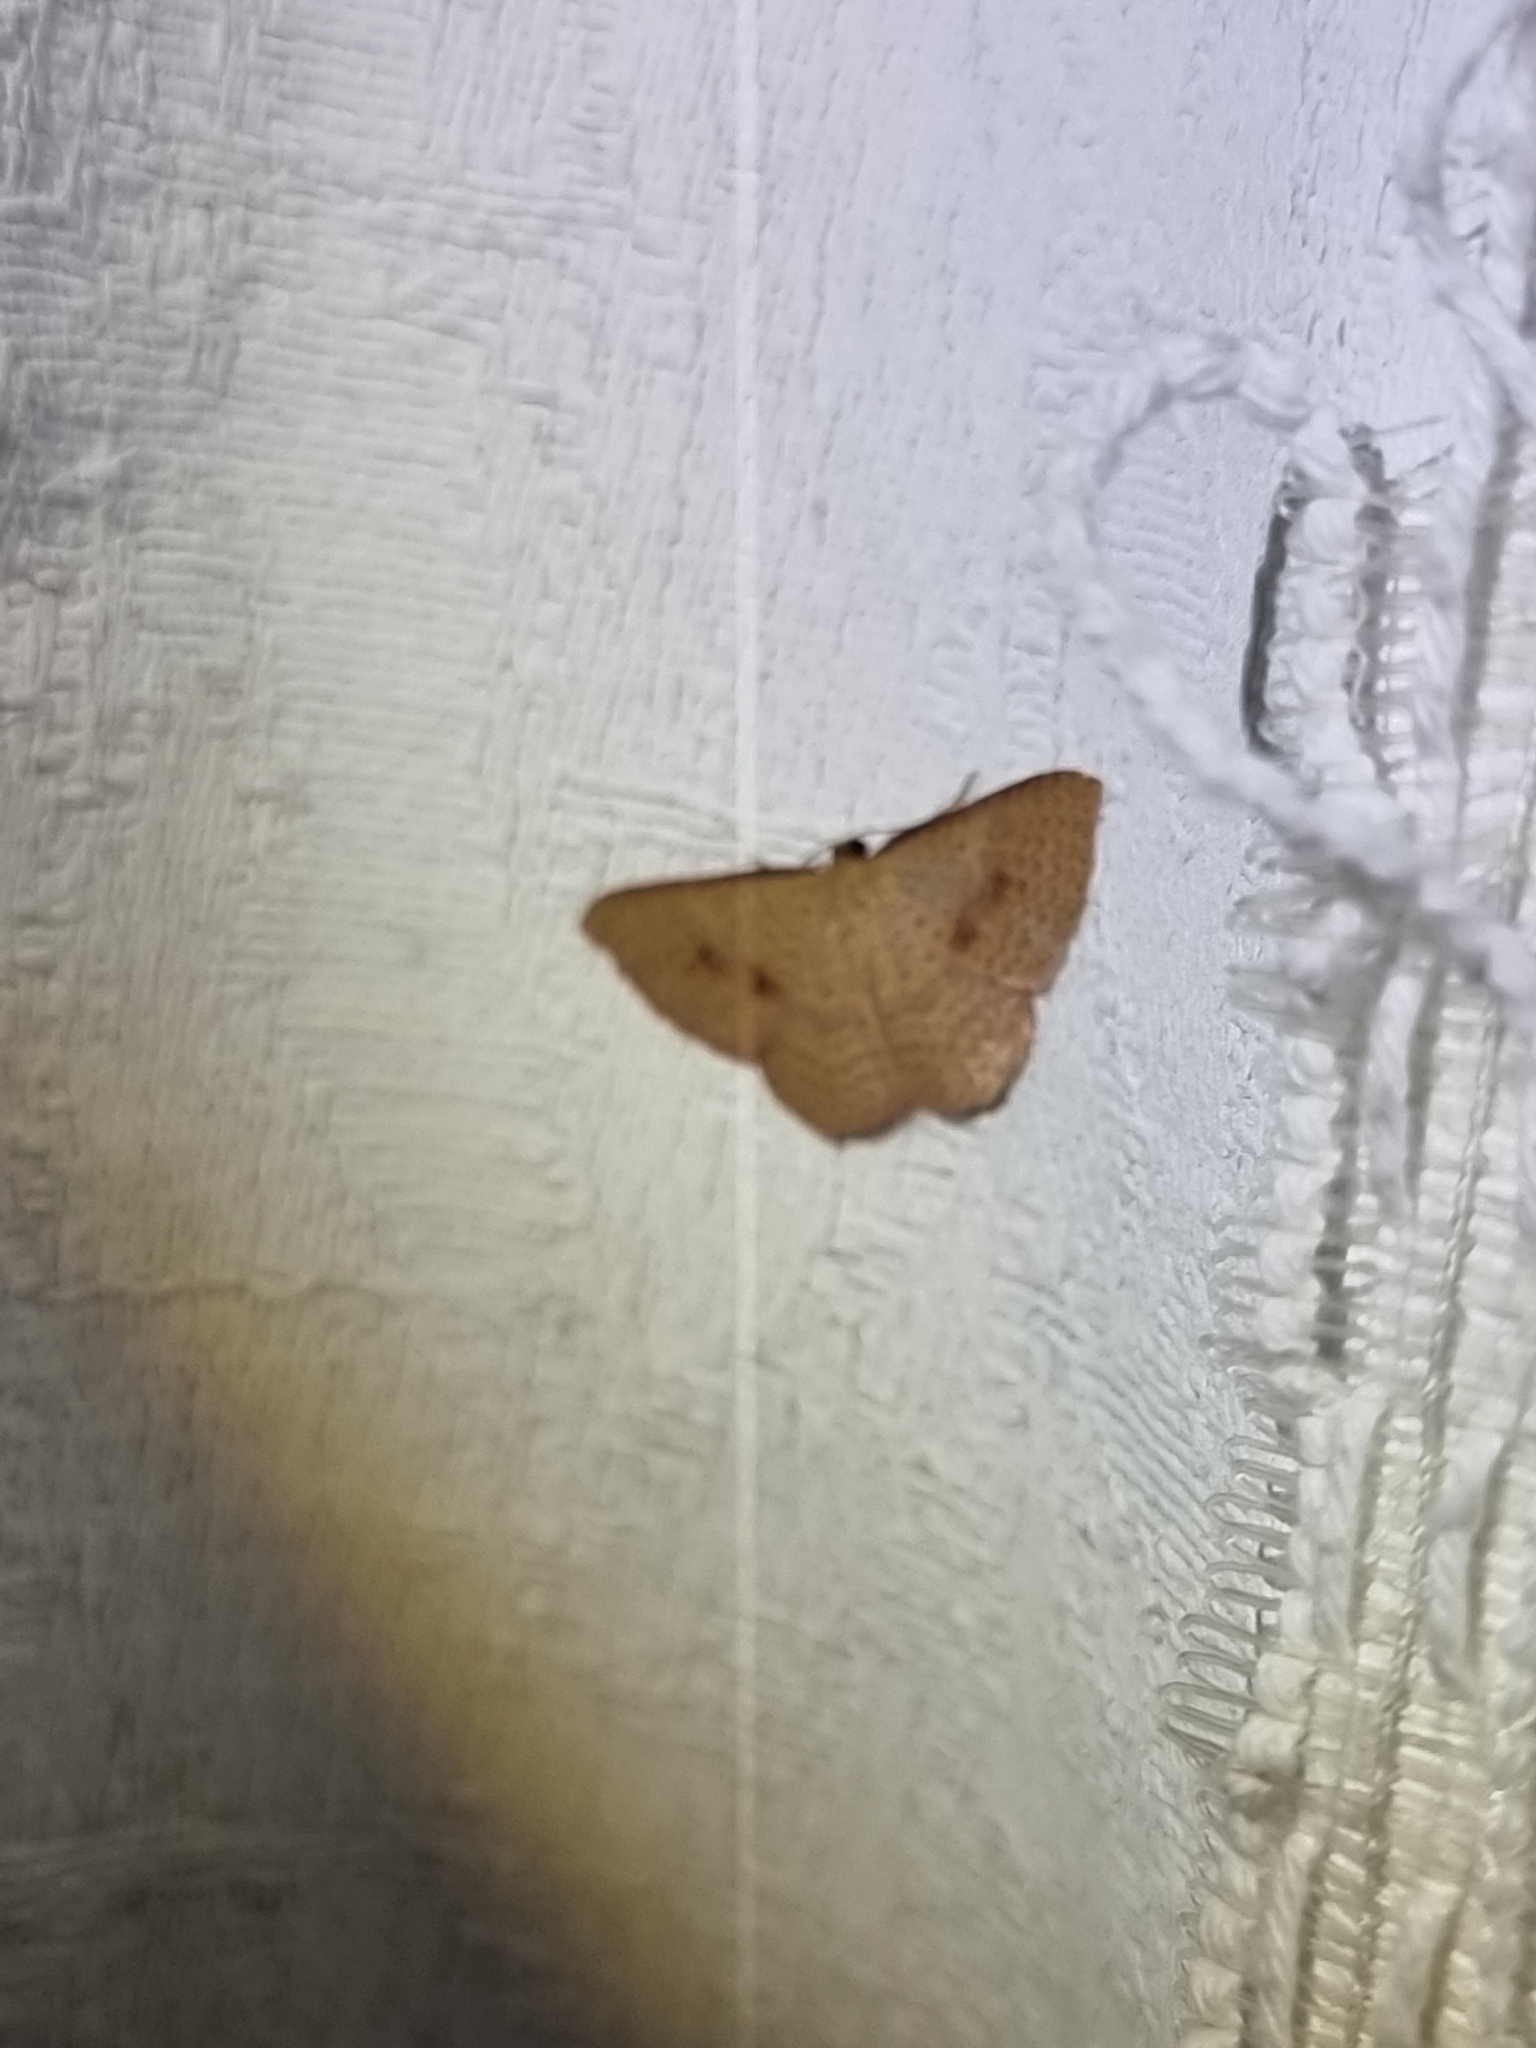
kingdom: Animalia
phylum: Arthropoda
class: Insecta
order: Lepidoptera
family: Geometridae
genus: Epicyme
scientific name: Epicyme rubropunctaria
